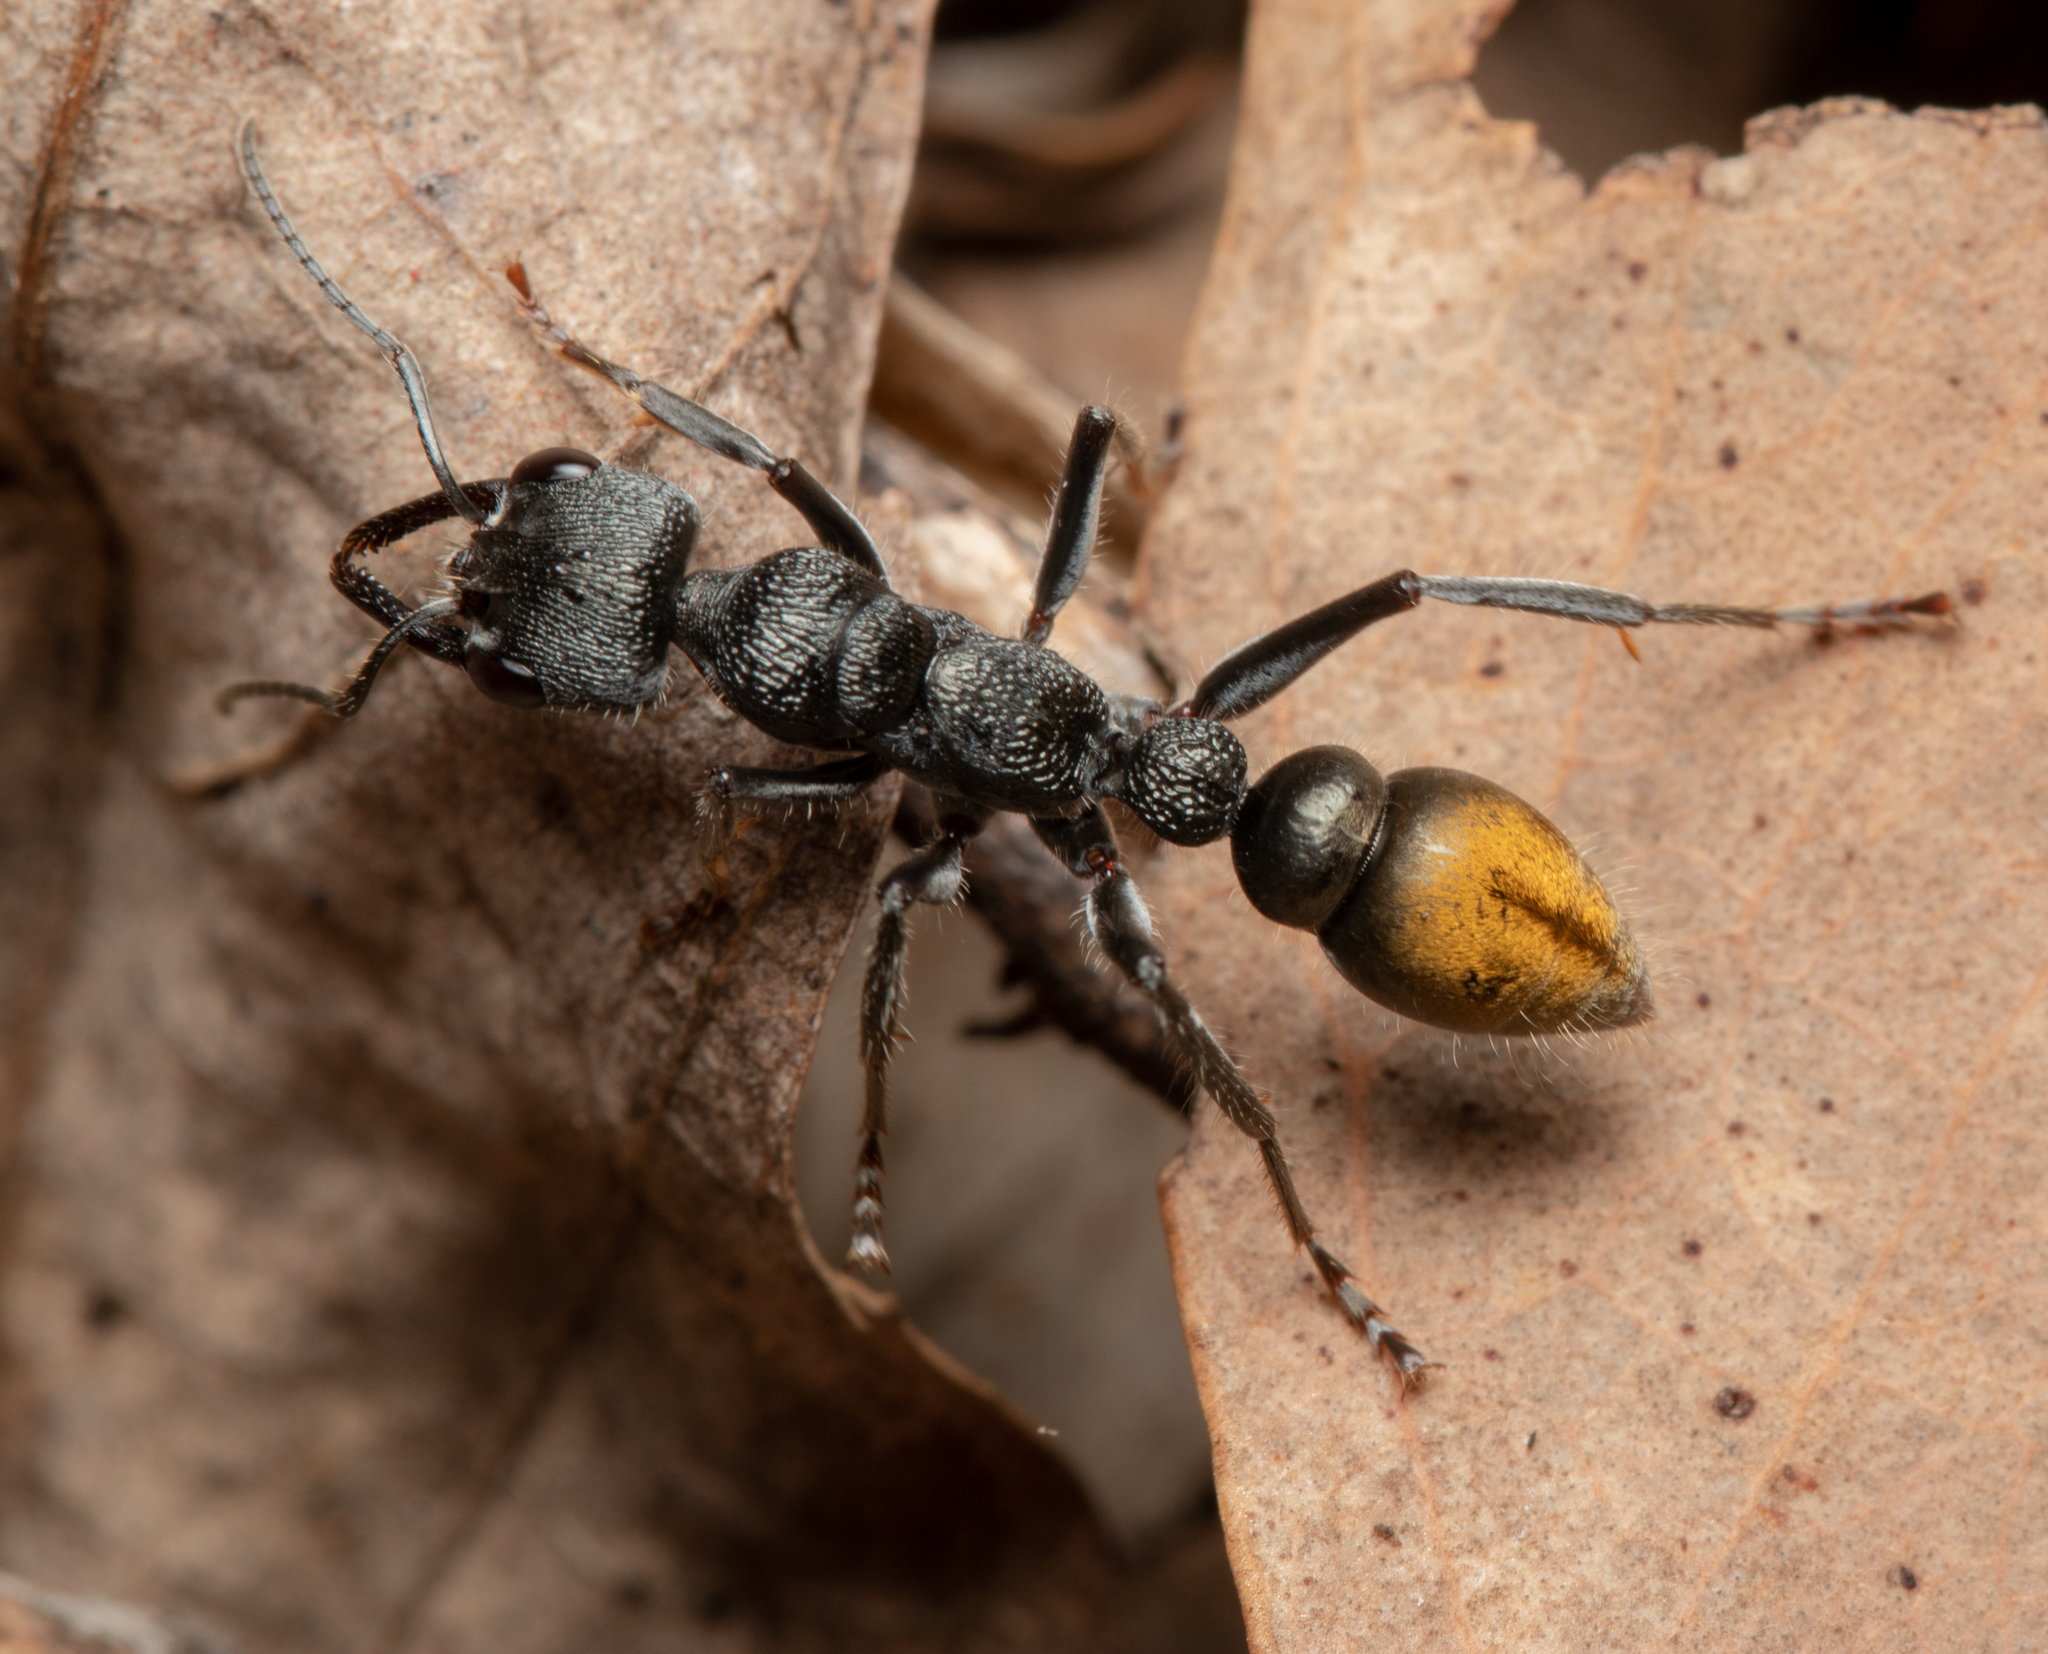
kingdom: Animalia
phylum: Arthropoda
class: Insecta
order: Hymenoptera
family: Formicidae
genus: Myrmecia
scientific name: Myrmecia gilberti
